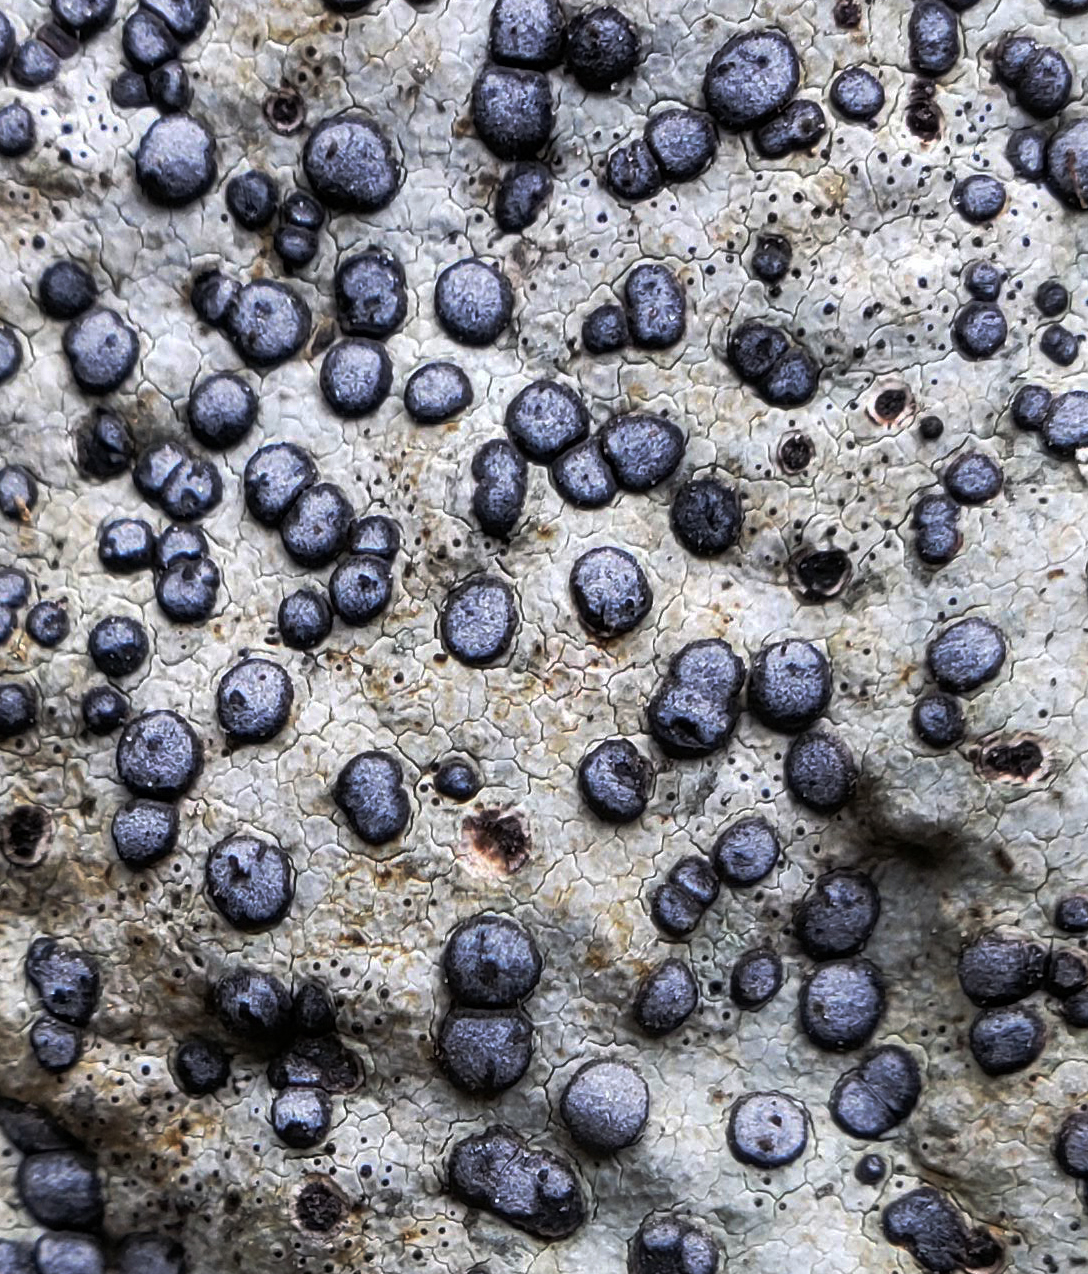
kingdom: Fungi
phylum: Ascomycota
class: Lecanoromycetes
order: Lecideales
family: Lecideaceae
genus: Porpidia
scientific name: Porpidia albocaerulescens
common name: Smokey-eyed boulder lichen
